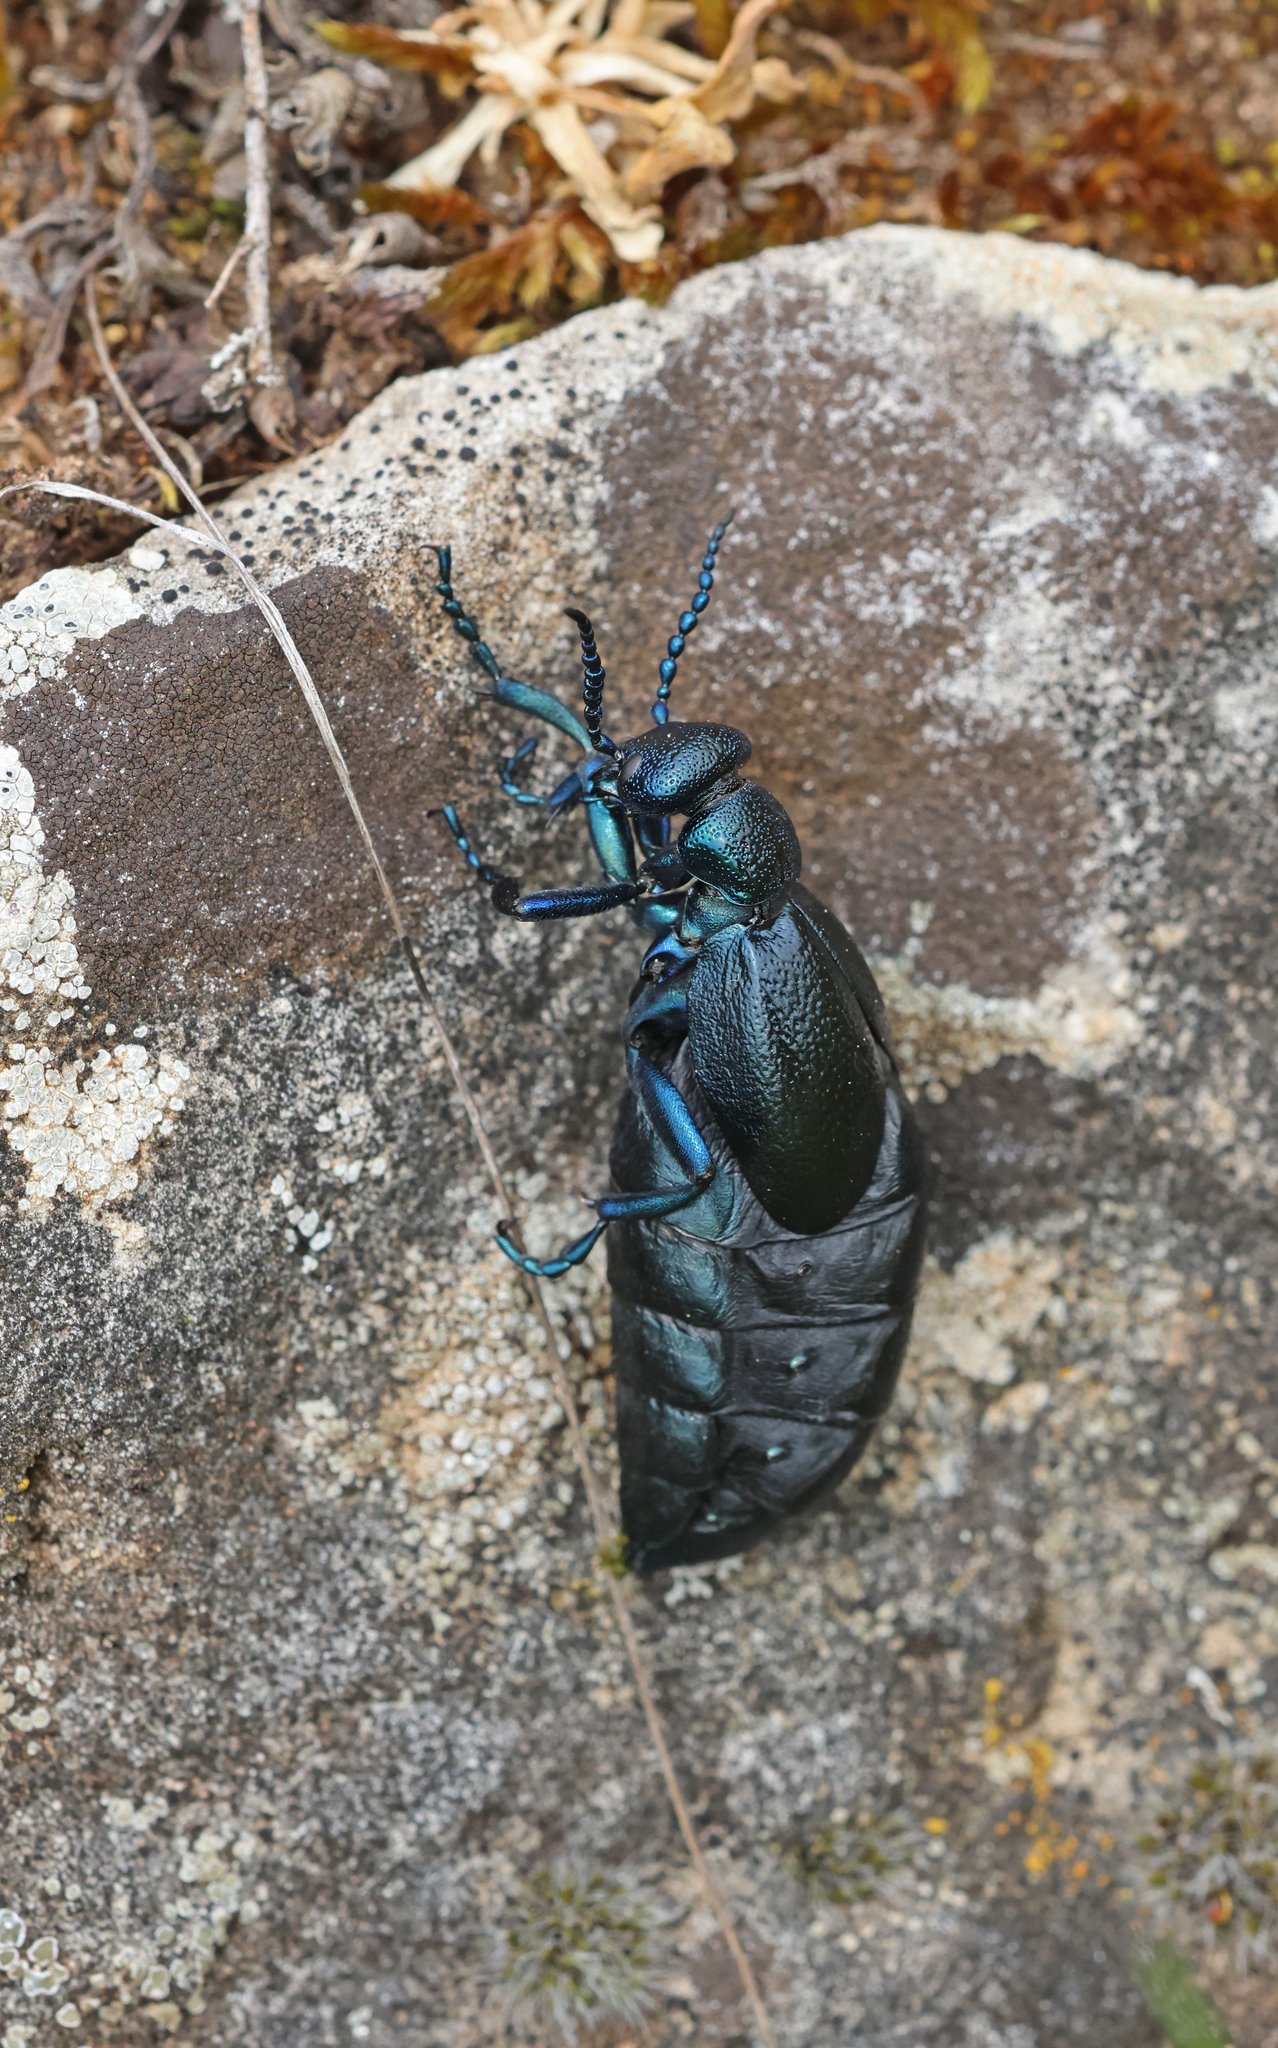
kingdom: Animalia
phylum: Arthropoda
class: Insecta
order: Coleoptera
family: Meloidae
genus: Meloe
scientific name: Meloe violaceus
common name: Violet oil-beetle
